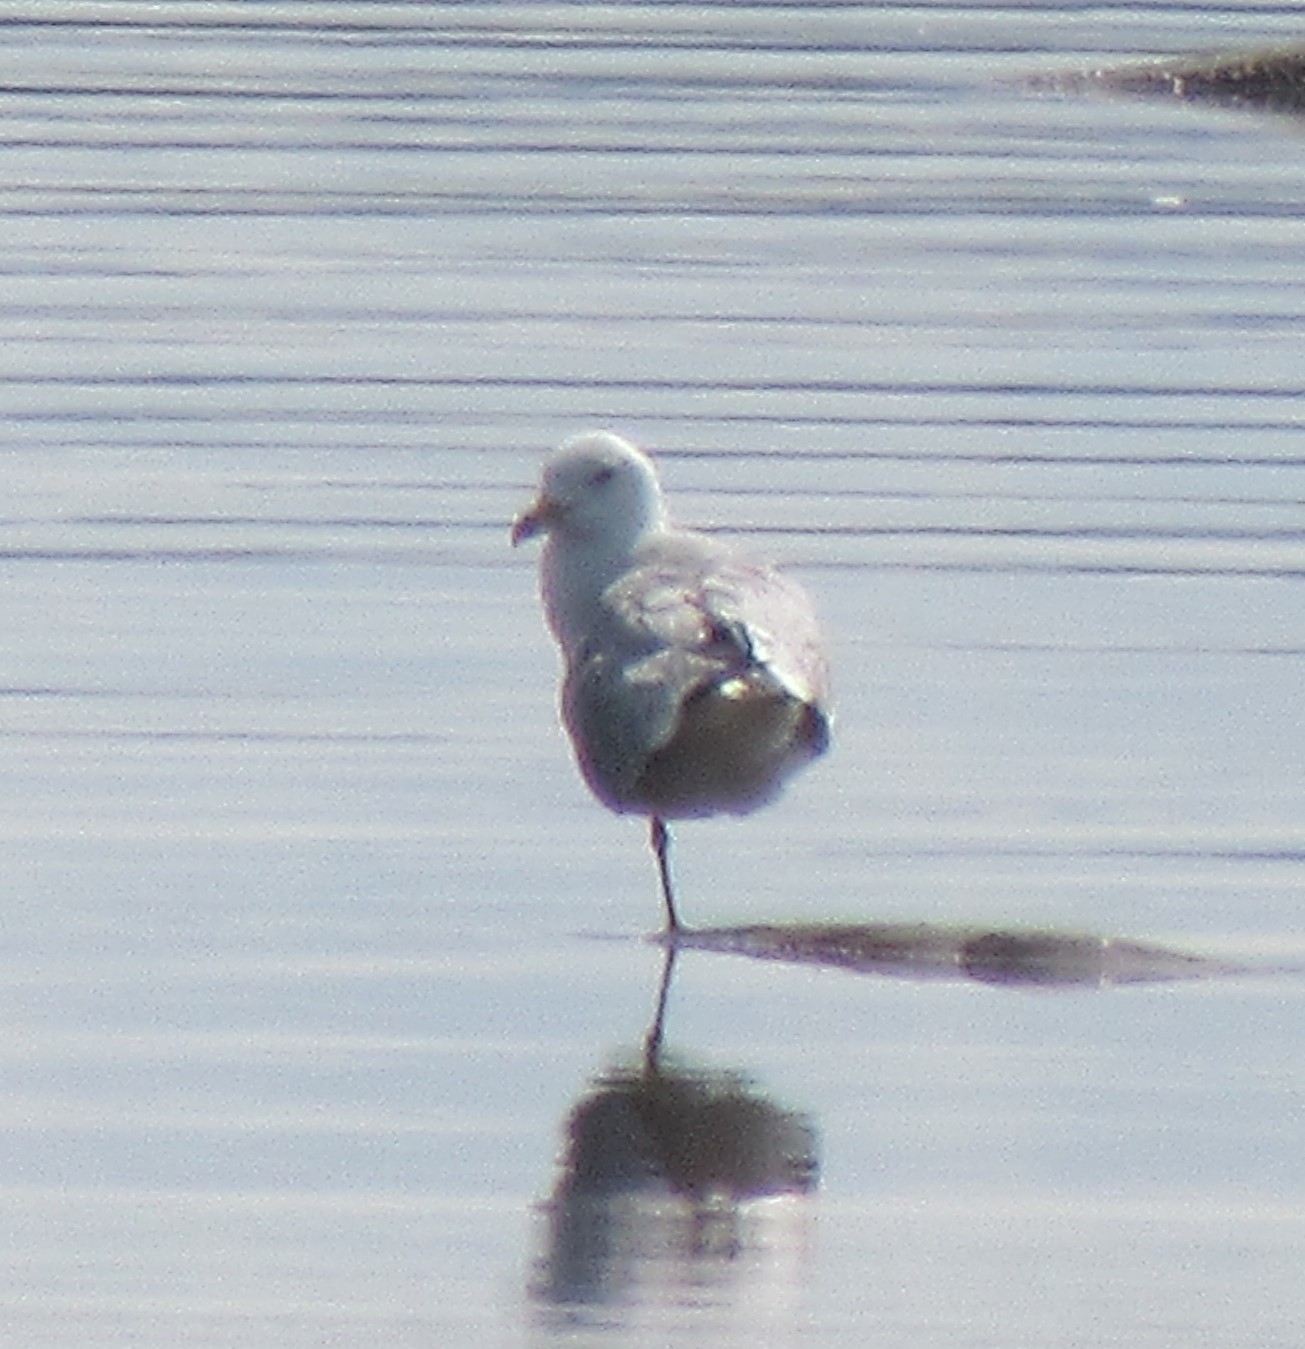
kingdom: Animalia
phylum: Chordata
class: Aves
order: Charadriiformes
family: Laridae
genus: Larus
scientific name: Larus delawarensis
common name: Ring-billed gull
